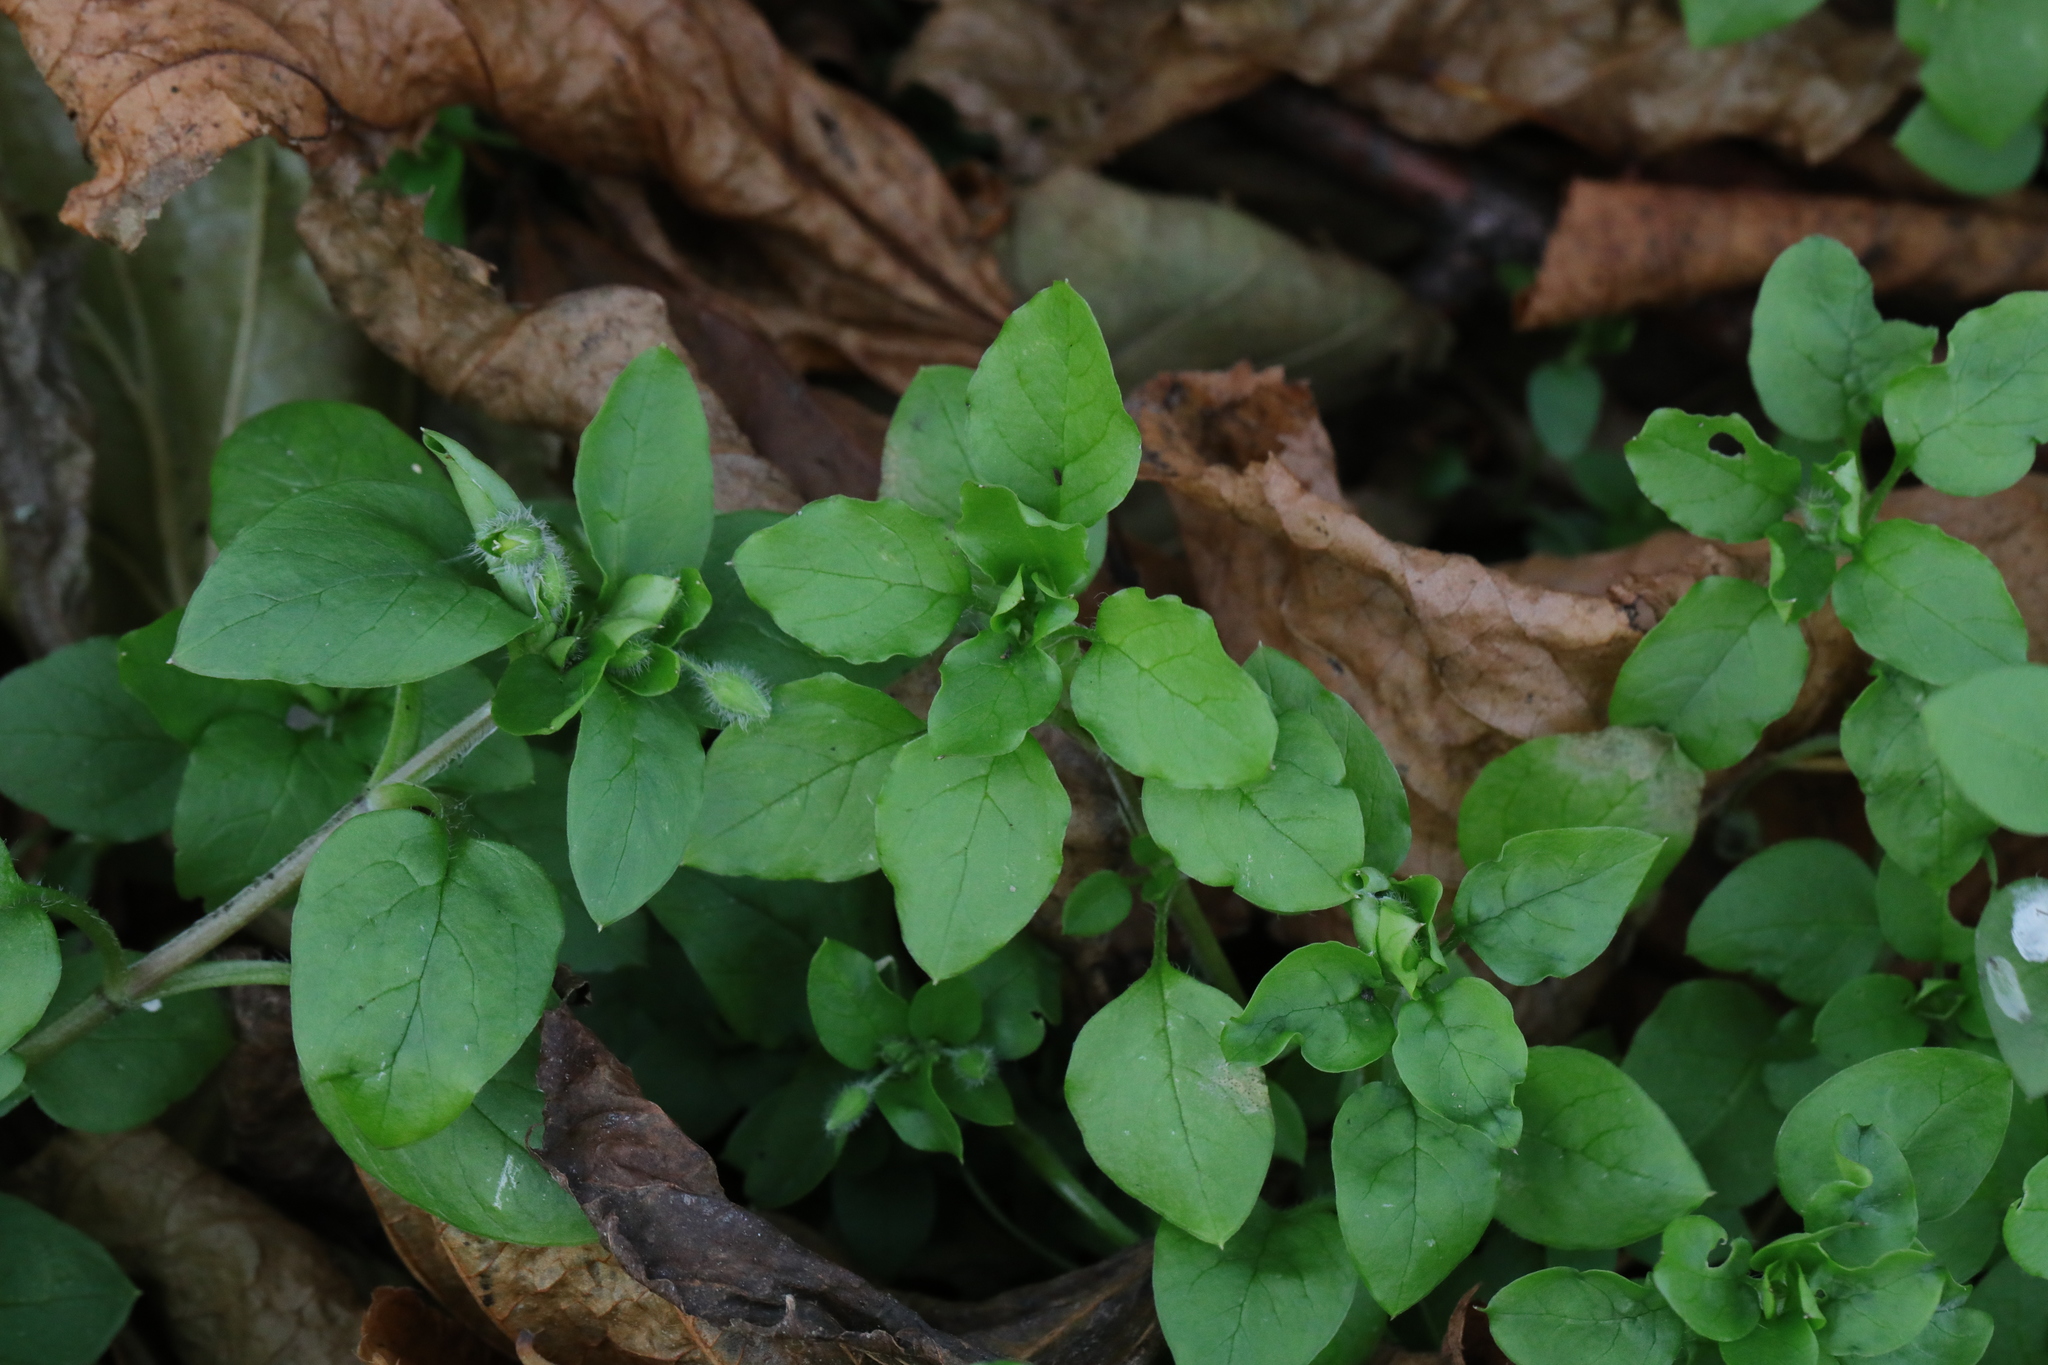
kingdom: Plantae
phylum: Tracheophyta
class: Magnoliopsida
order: Caryophyllales
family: Caryophyllaceae
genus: Stellaria
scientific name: Stellaria media
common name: Common chickweed
